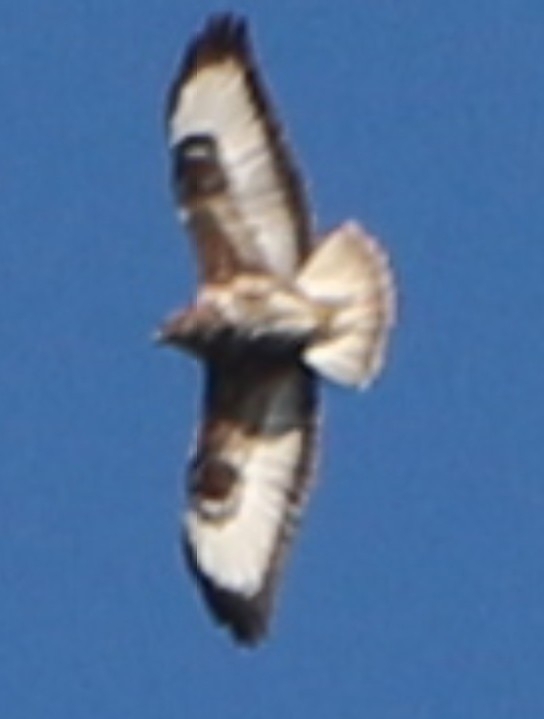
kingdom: Animalia
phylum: Chordata
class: Aves
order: Accipitriformes
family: Accipitridae
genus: Buteo
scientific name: Buteo buteo
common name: Common buzzard
